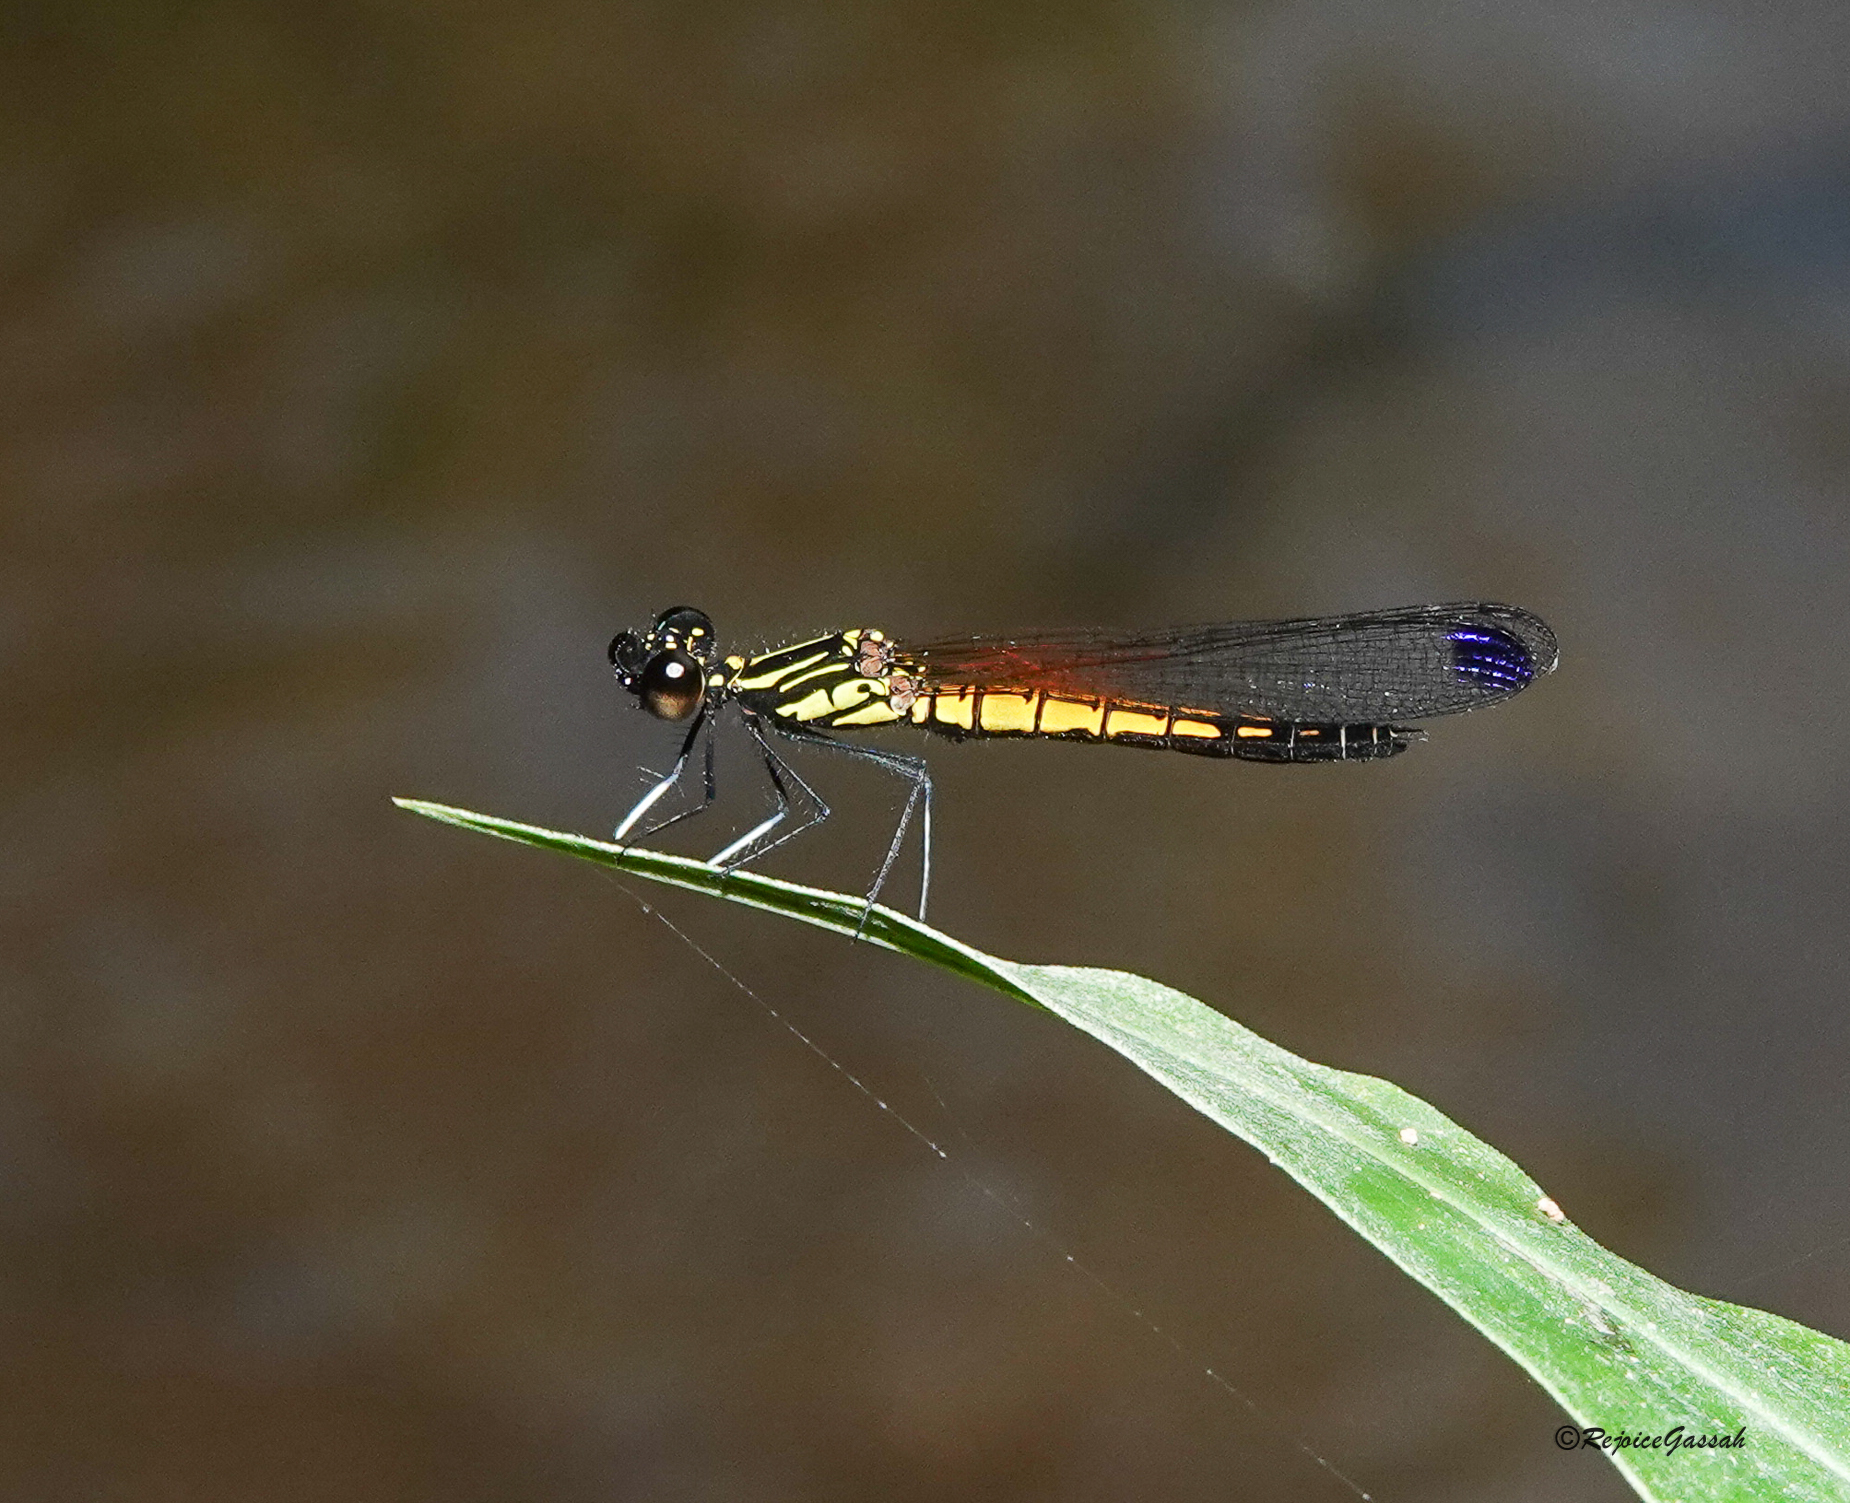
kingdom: Animalia
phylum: Arthropoda
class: Insecta
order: Odonata
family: Chlorocyphidae
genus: Libellago
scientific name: Libellago lineata
